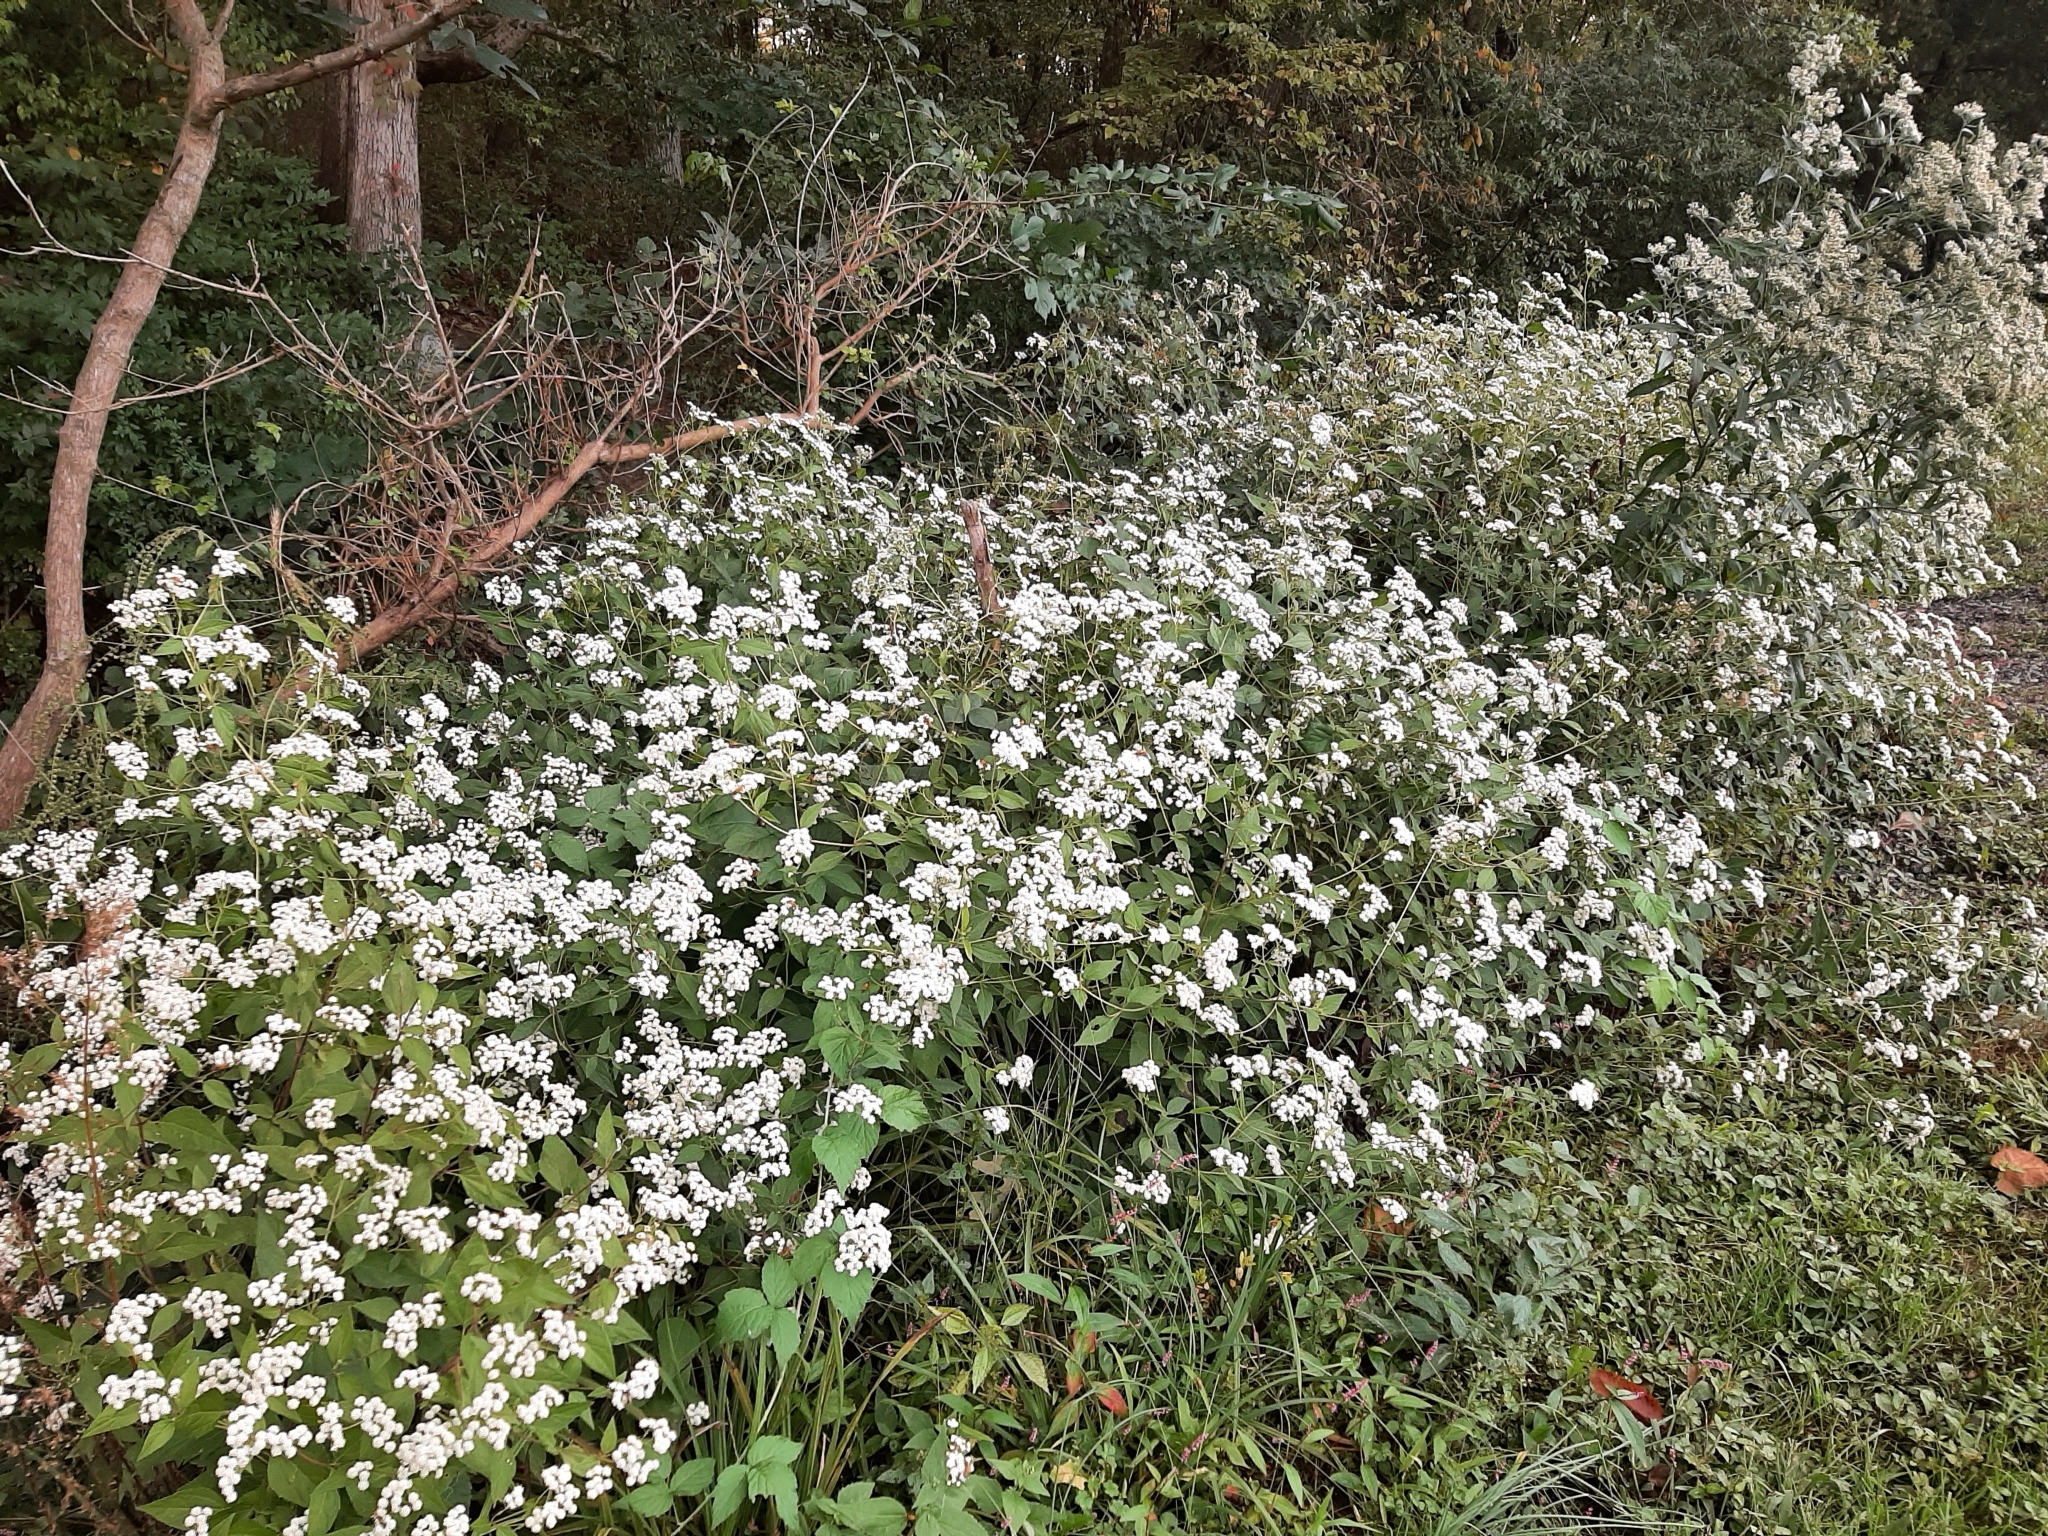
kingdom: Plantae
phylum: Tracheophyta
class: Magnoliopsida
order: Asterales
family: Asteraceae
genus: Ageratina
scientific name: Ageratina altissima
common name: White snakeroot
